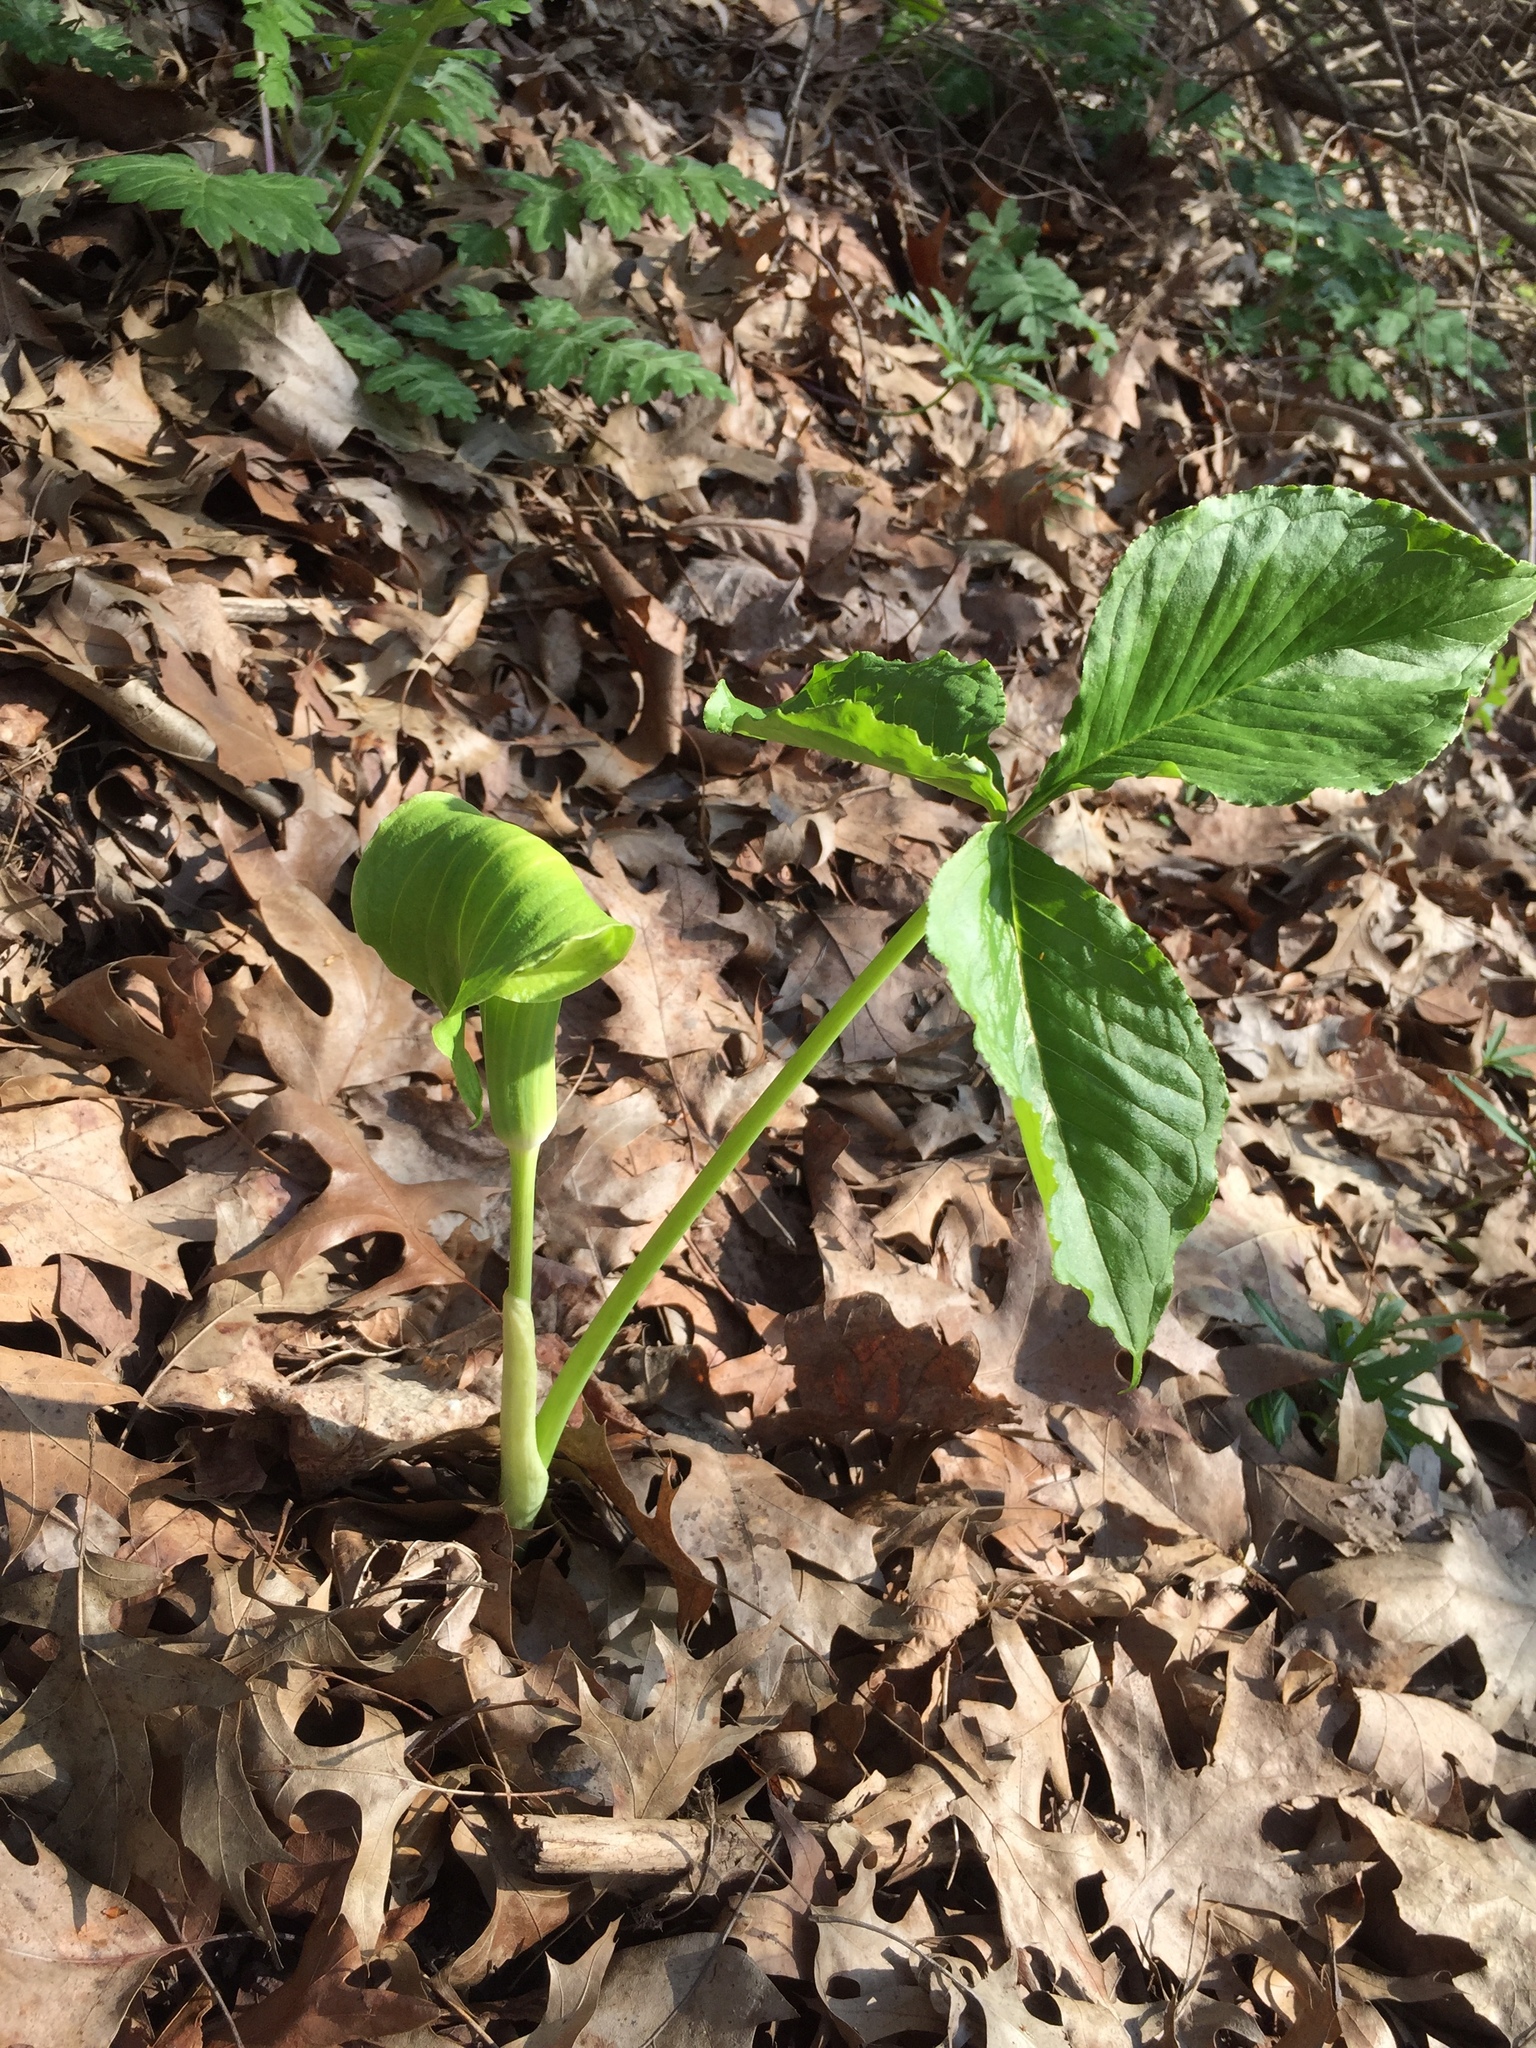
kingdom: Plantae
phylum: Tracheophyta
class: Liliopsida
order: Alismatales
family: Araceae
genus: Arisaema
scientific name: Arisaema triphyllum
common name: Jack-in-the-pulpit
